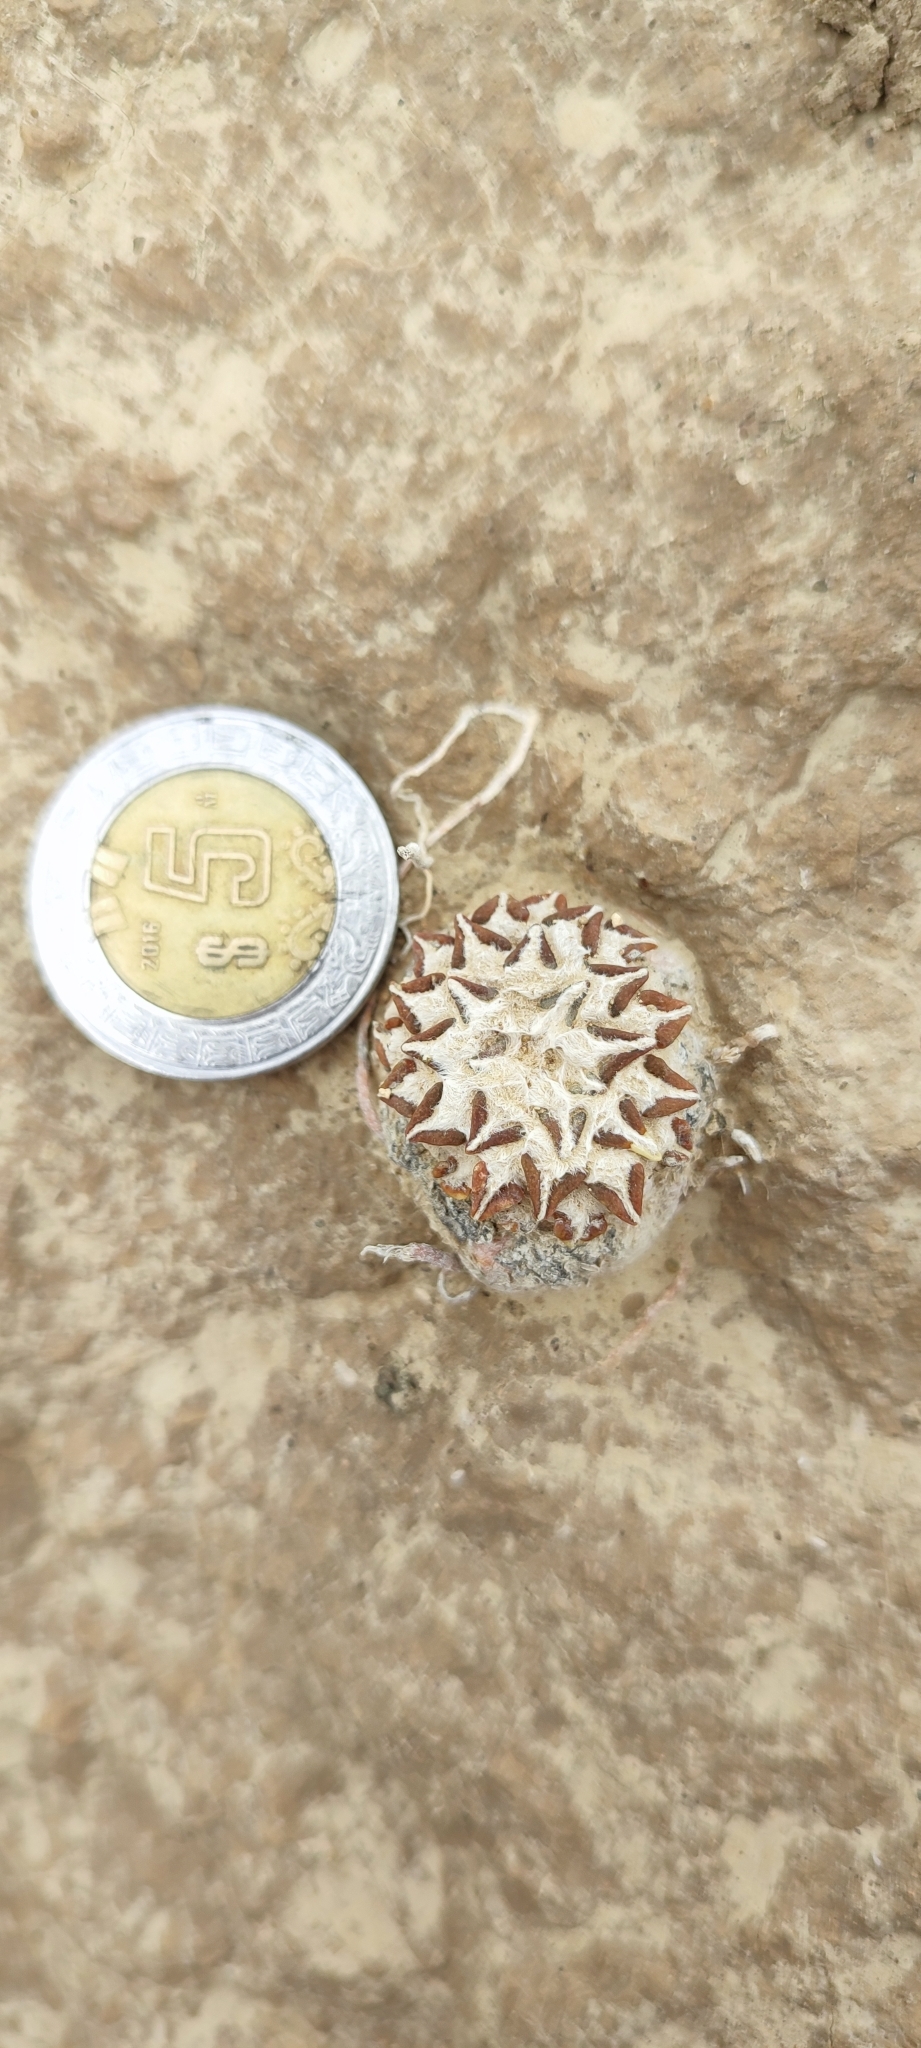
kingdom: Plantae
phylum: Tracheophyta
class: Magnoliopsida
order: Caryophyllales
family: Cactaceae
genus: Ariocarpus
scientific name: Ariocarpus kotschoubeyanus
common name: Living-rock
